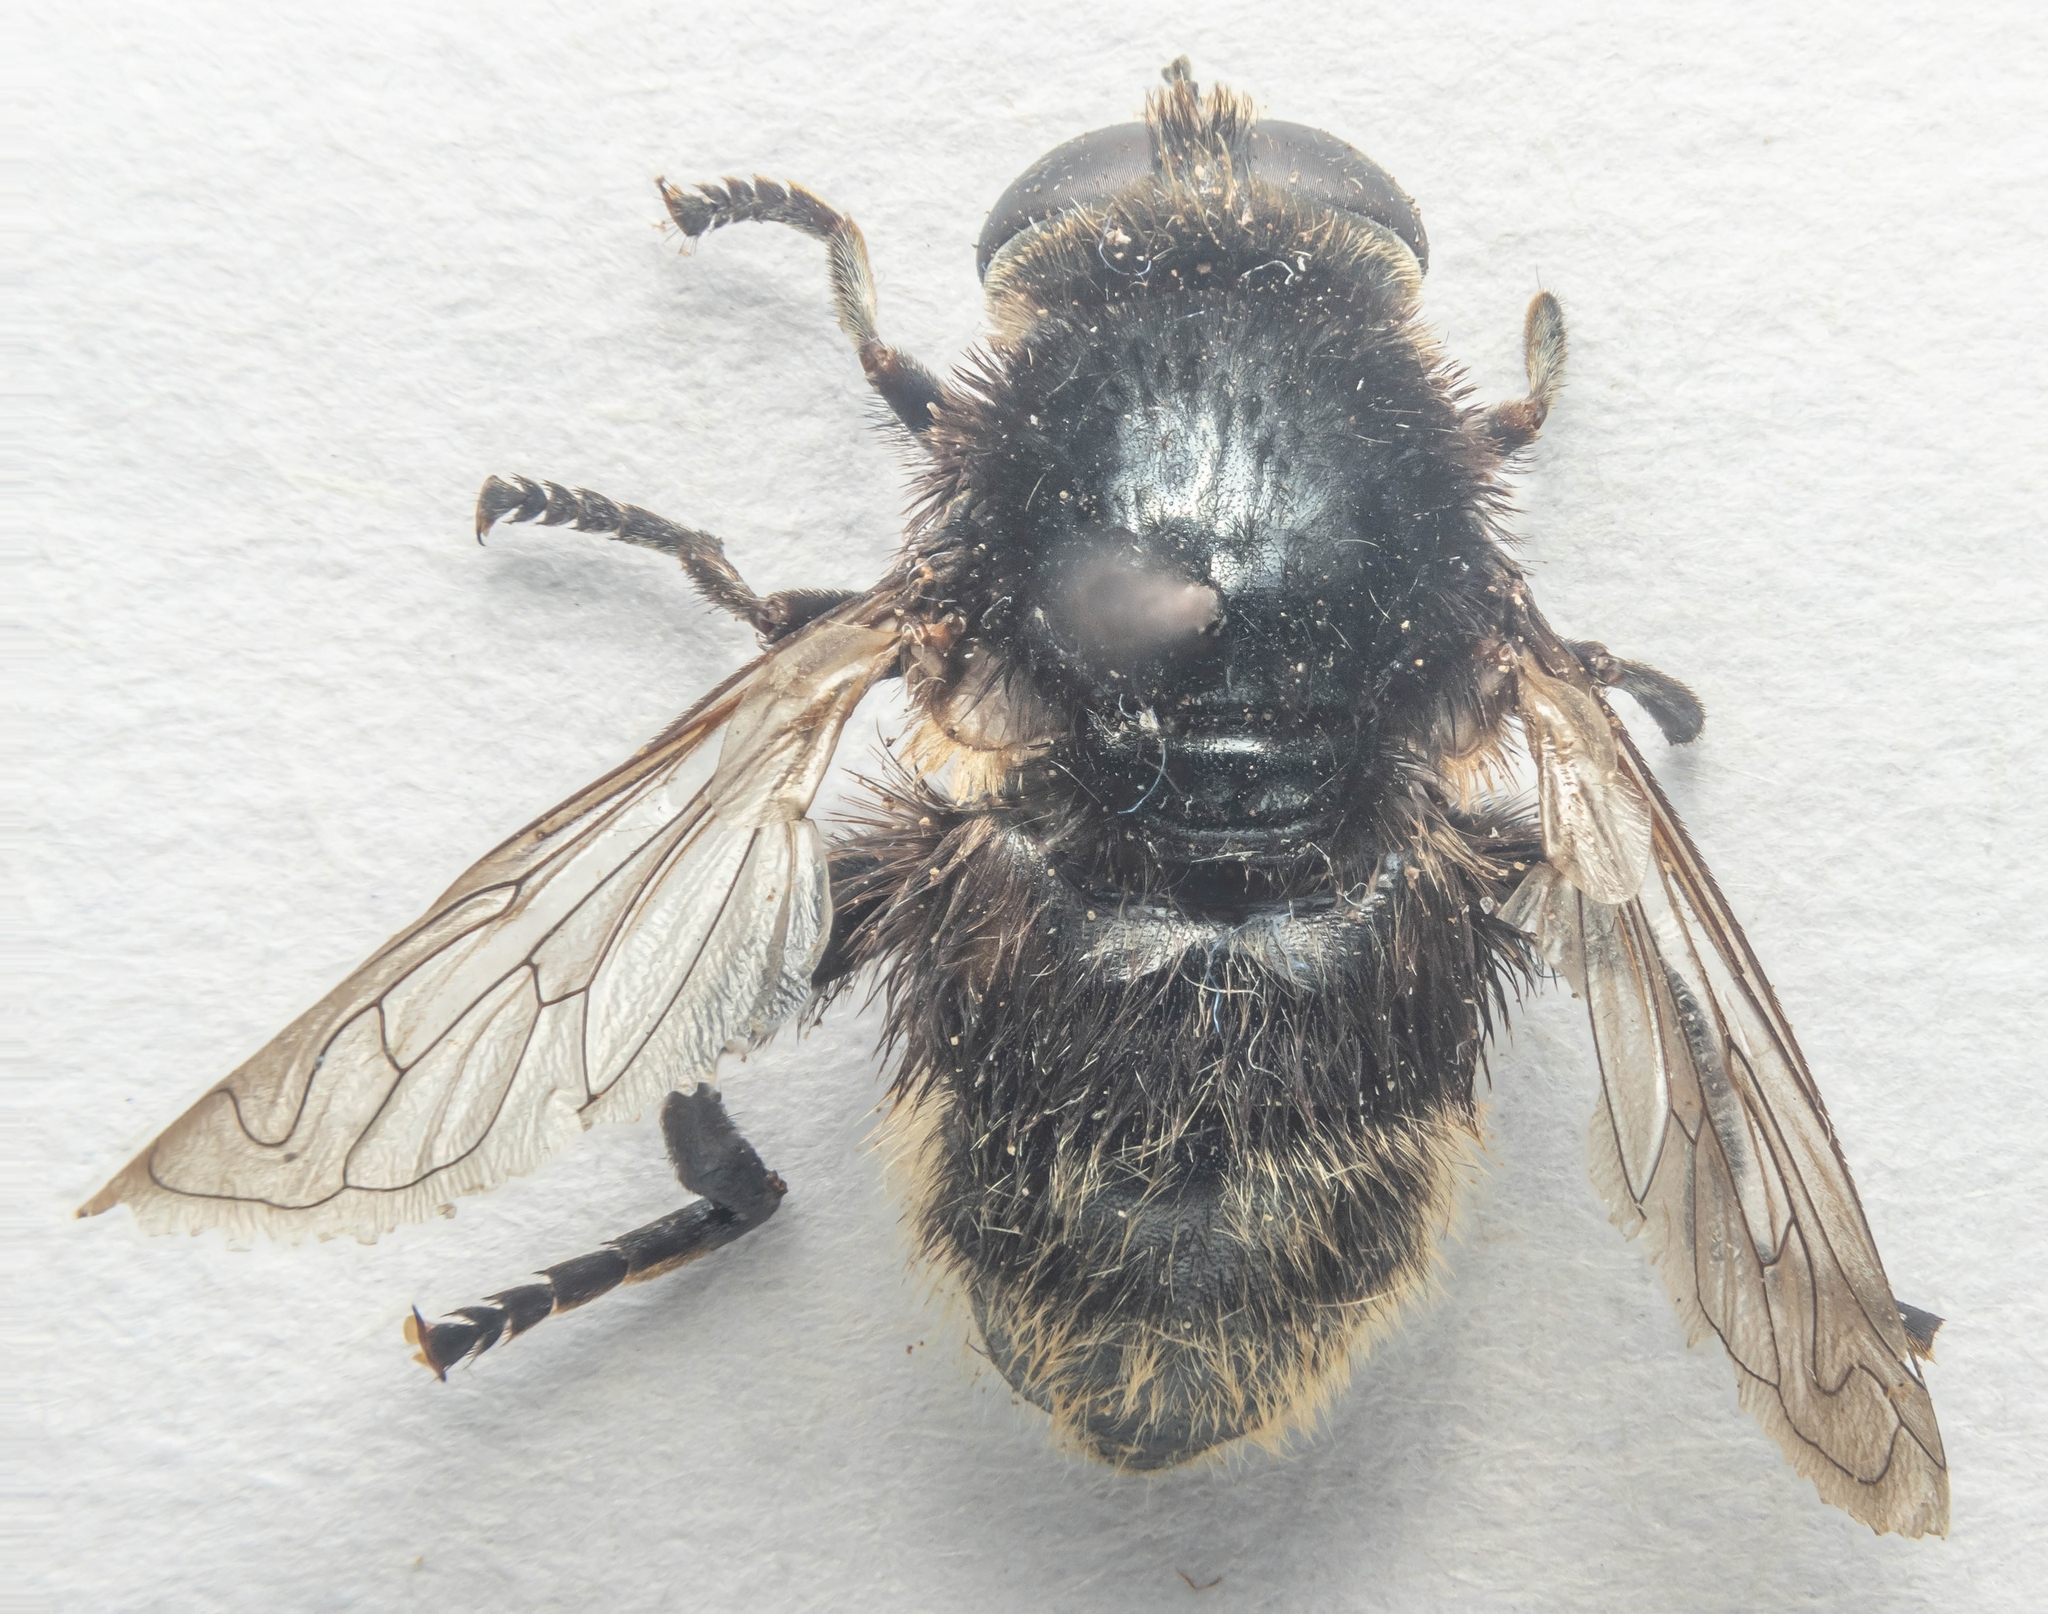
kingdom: Animalia
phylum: Arthropoda
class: Insecta
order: Diptera
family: Syrphidae
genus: Volucella
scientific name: Volucella bombylans
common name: Bumble bee hover fly
